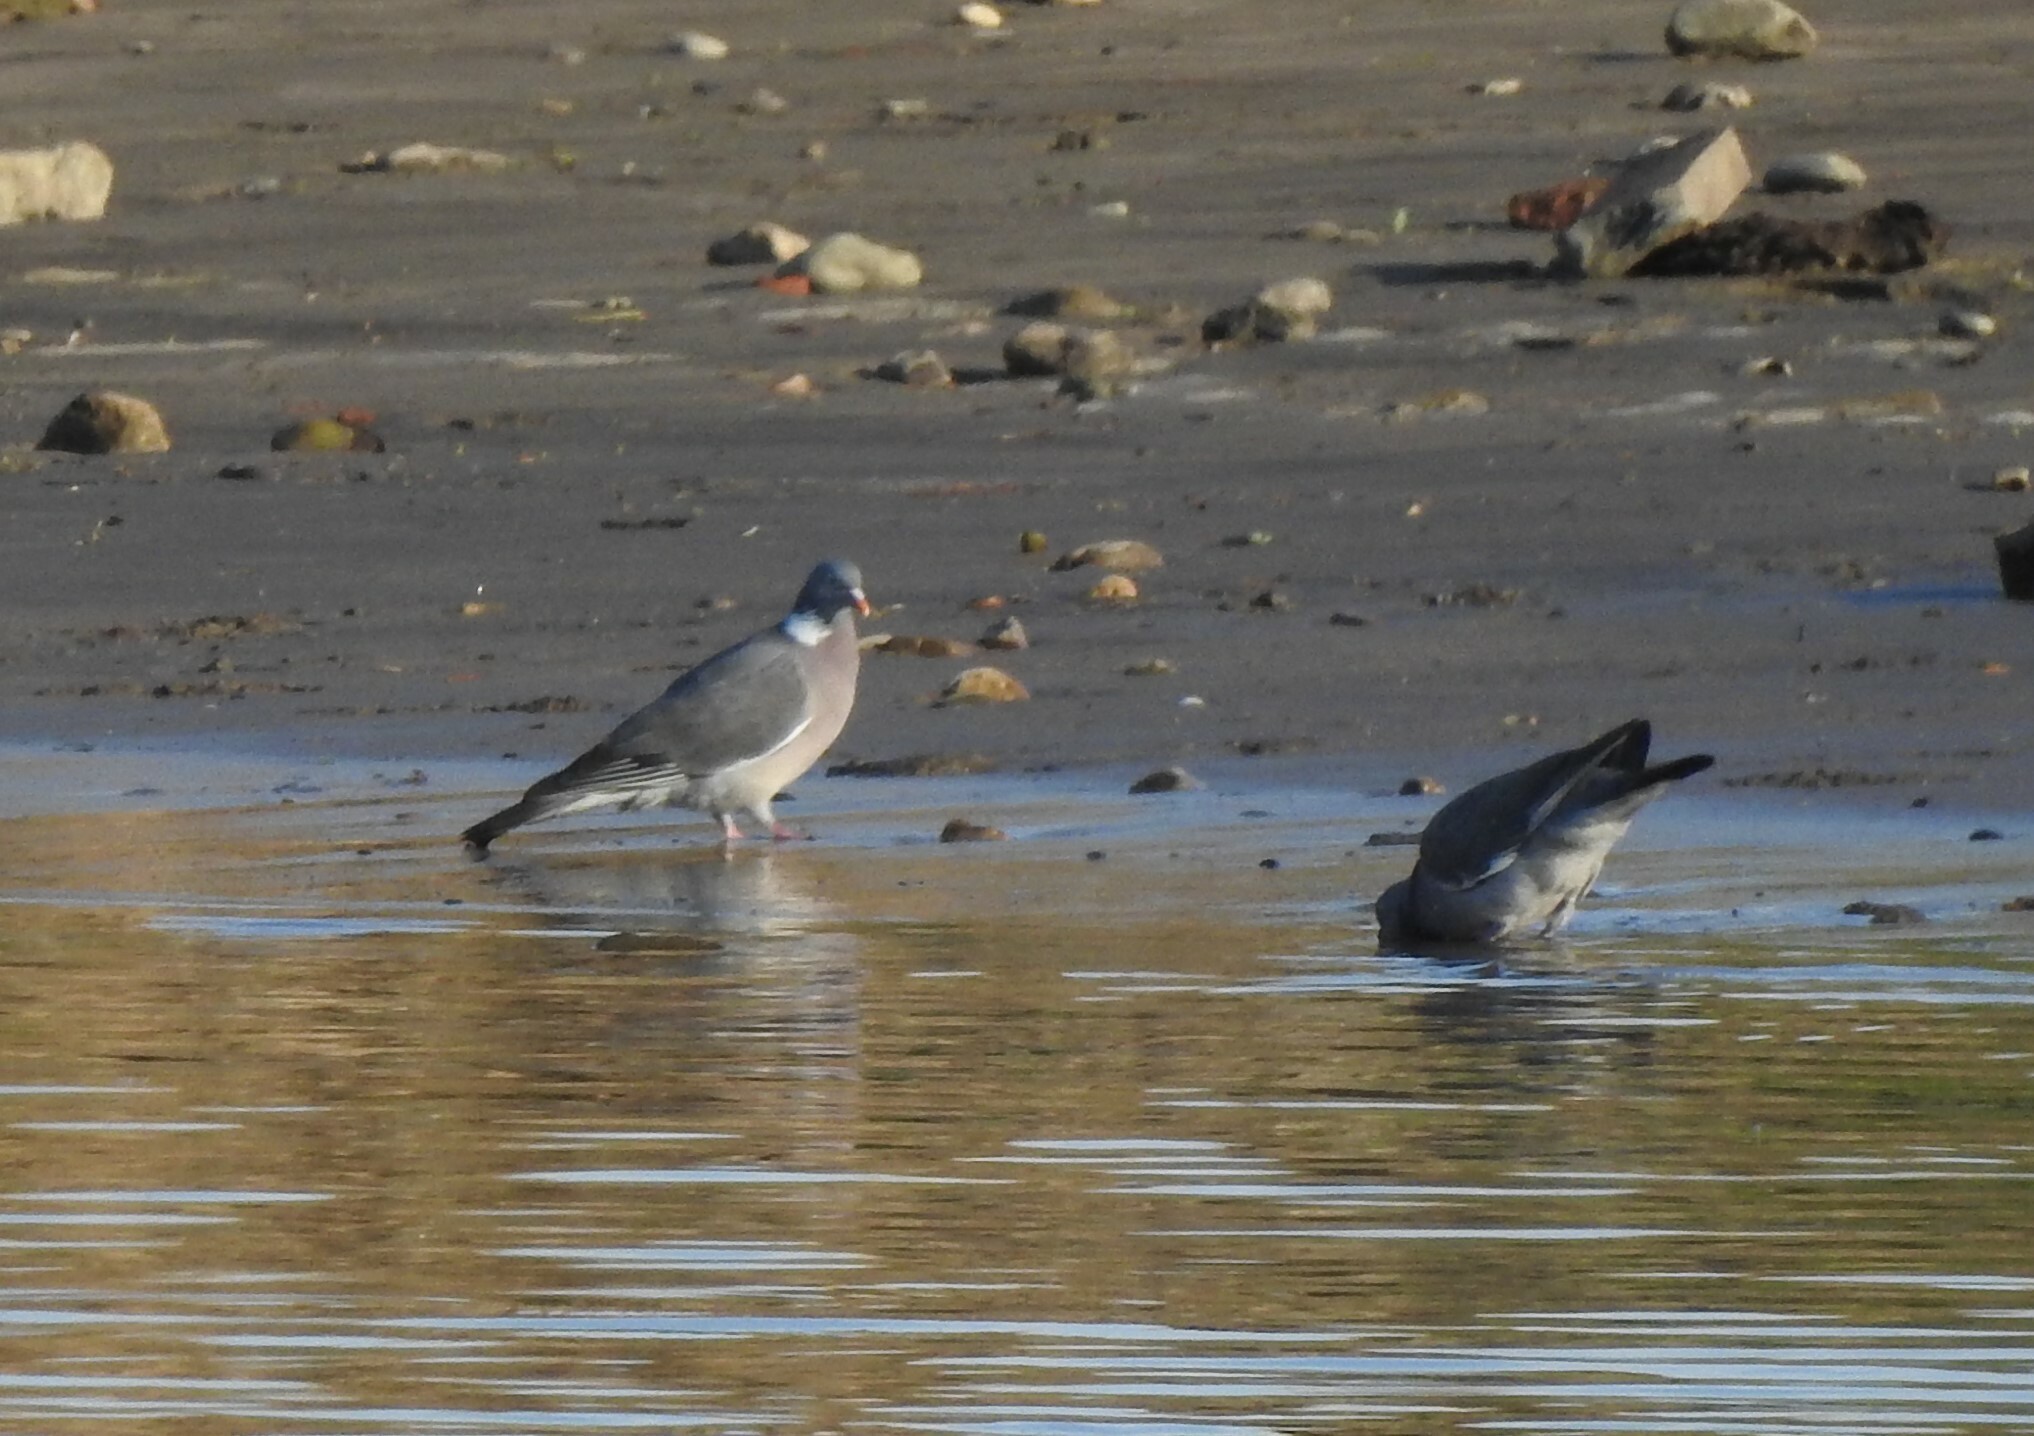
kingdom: Animalia
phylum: Chordata
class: Aves
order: Columbiformes
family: Columbidae
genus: Columba
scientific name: Columba palumbus
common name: Common wood pigeon
